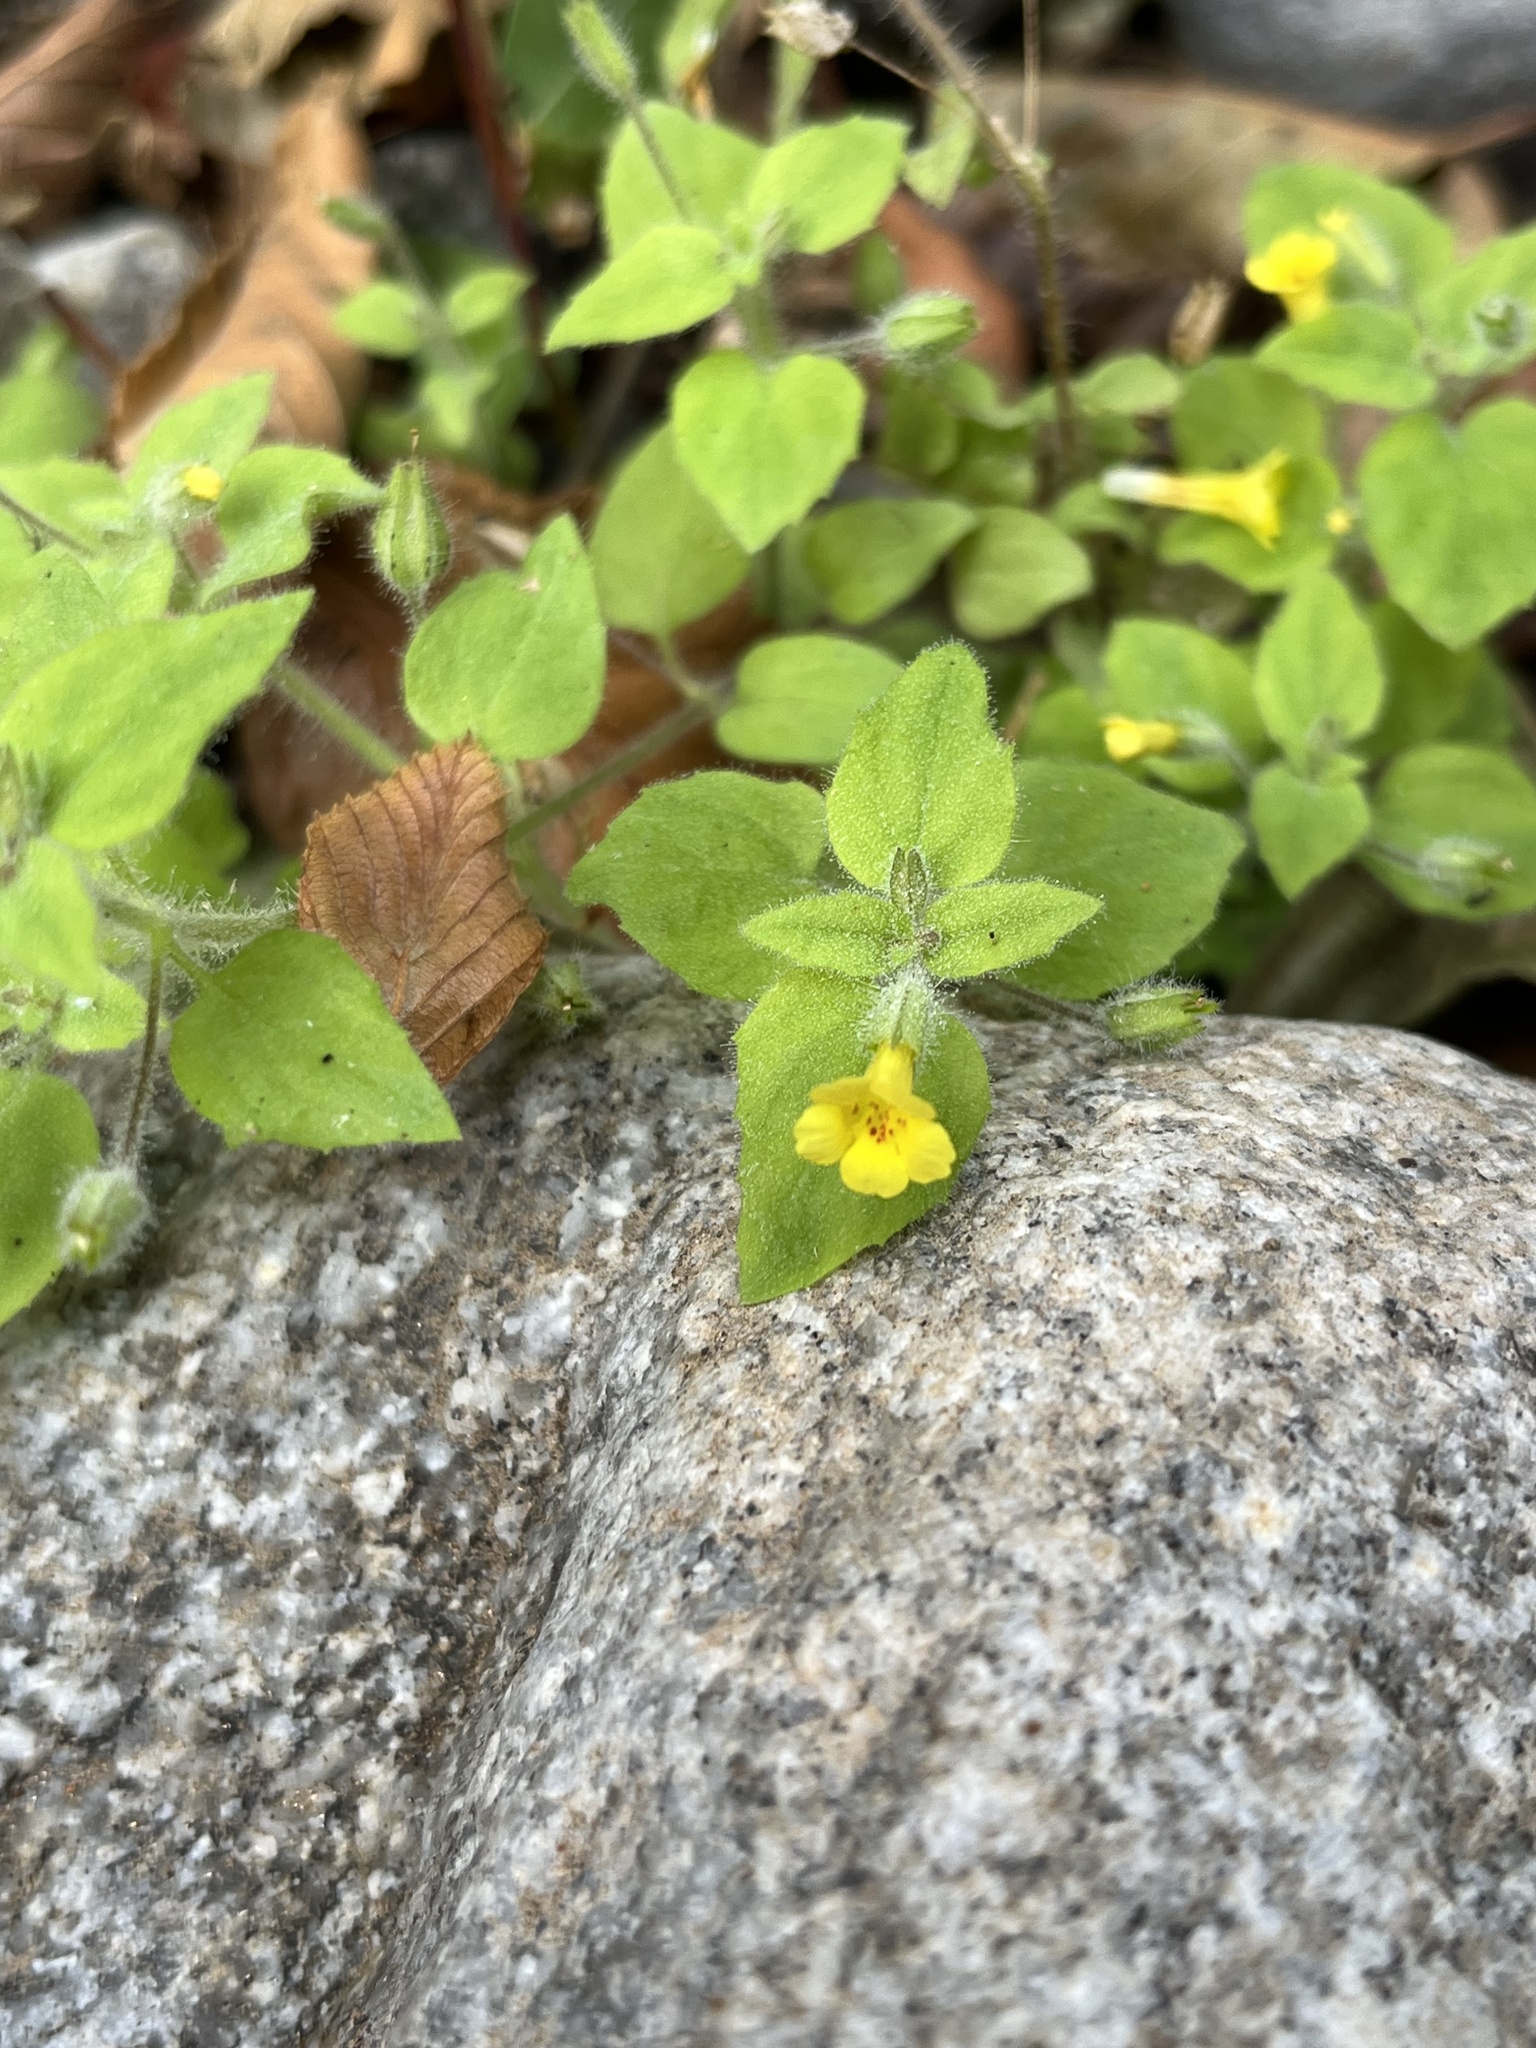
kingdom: Plantae
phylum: Tracheophyta
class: Magnoliopsida
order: Lamiales
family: Phrymaceae
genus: Erythranthe
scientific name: Erythranthe floribunda
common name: Floriferous monkeyflower
